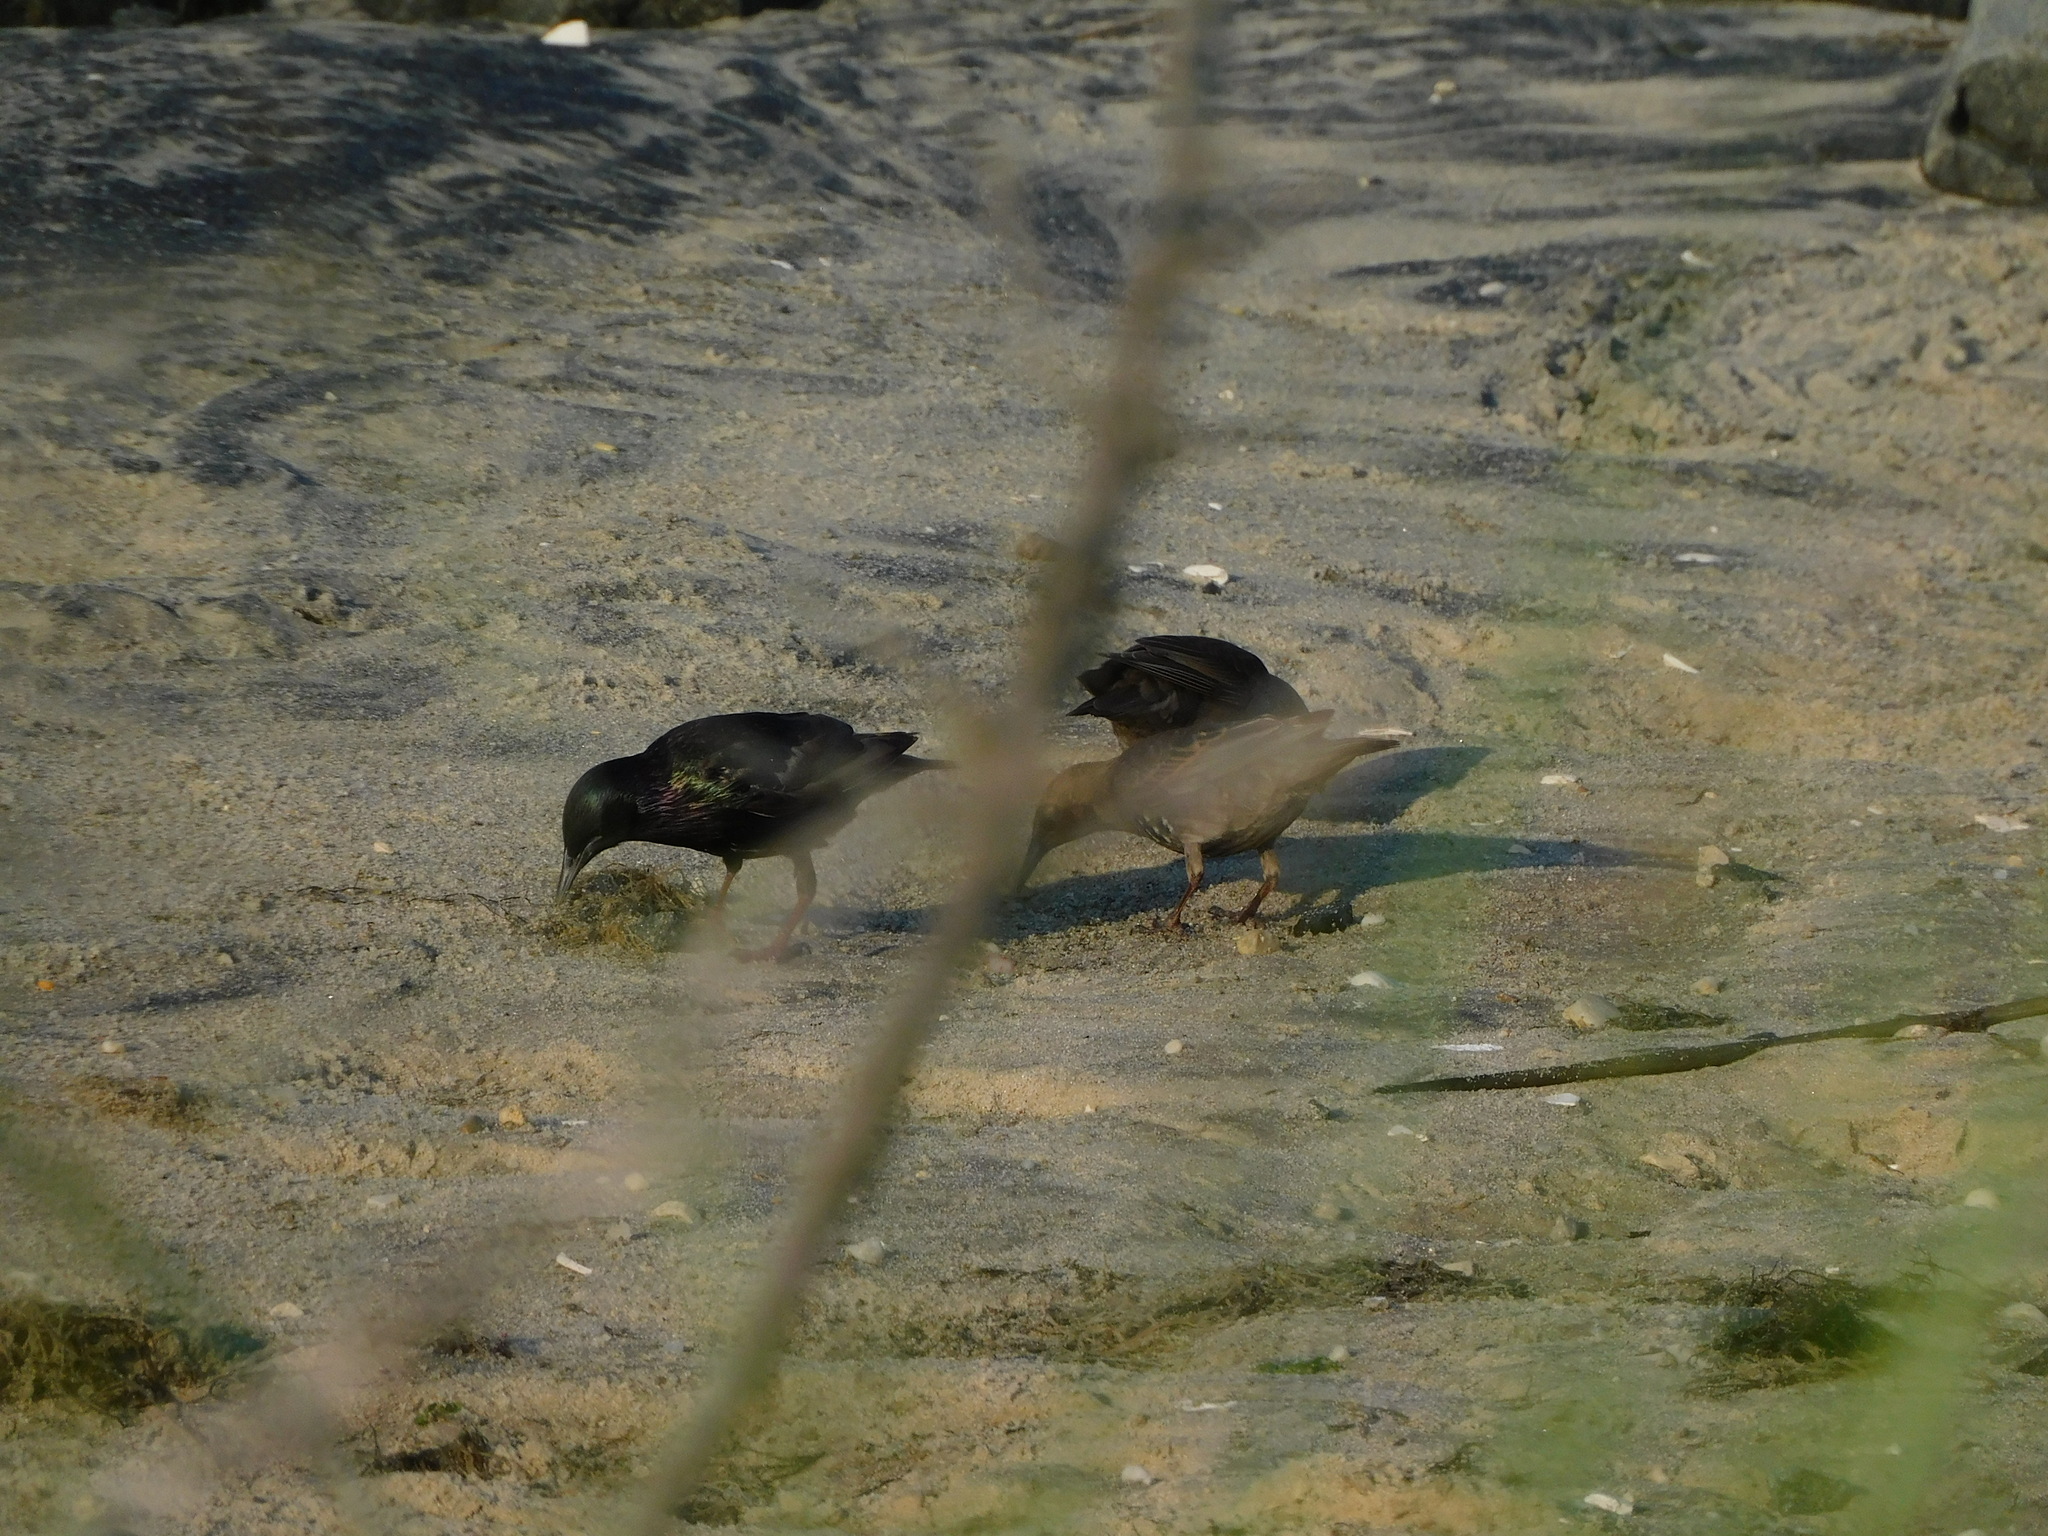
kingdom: Animalia
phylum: Chordata
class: Aves
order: Passeriformes
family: Sturnidae
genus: Sturnus
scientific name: Sturnus vulgaris
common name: Common starling
